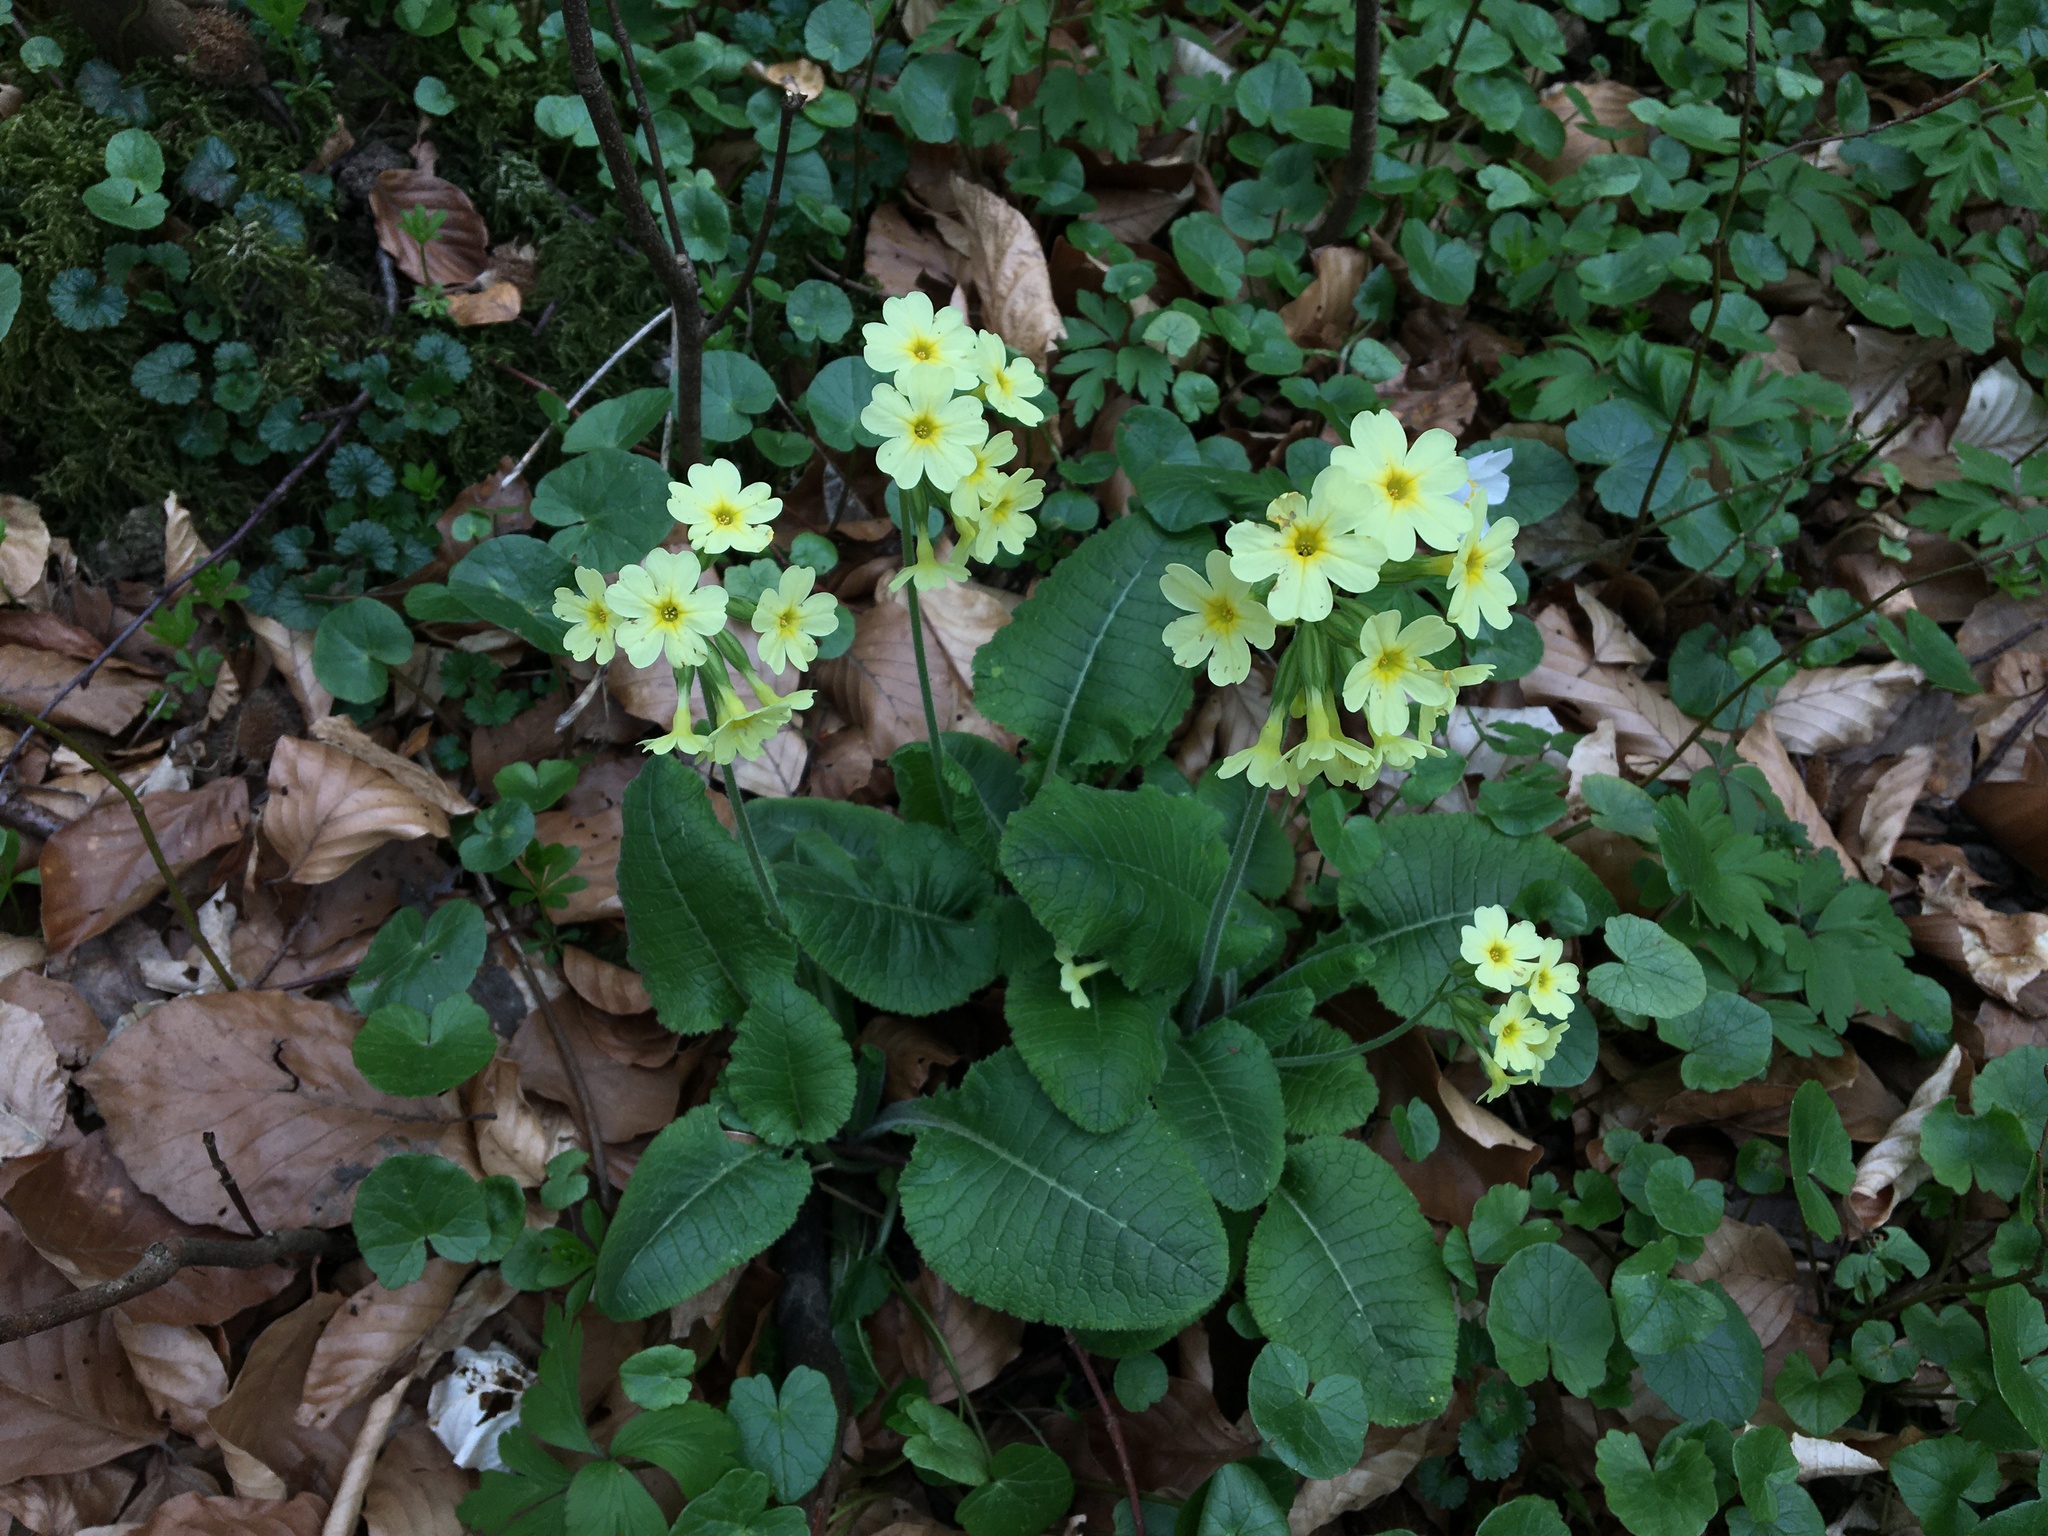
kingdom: Plantae
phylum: Tracheophyta
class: Magnoliopsida
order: Ericales
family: Primulaceae
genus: Primula
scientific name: Primula elatior
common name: Oxlip
